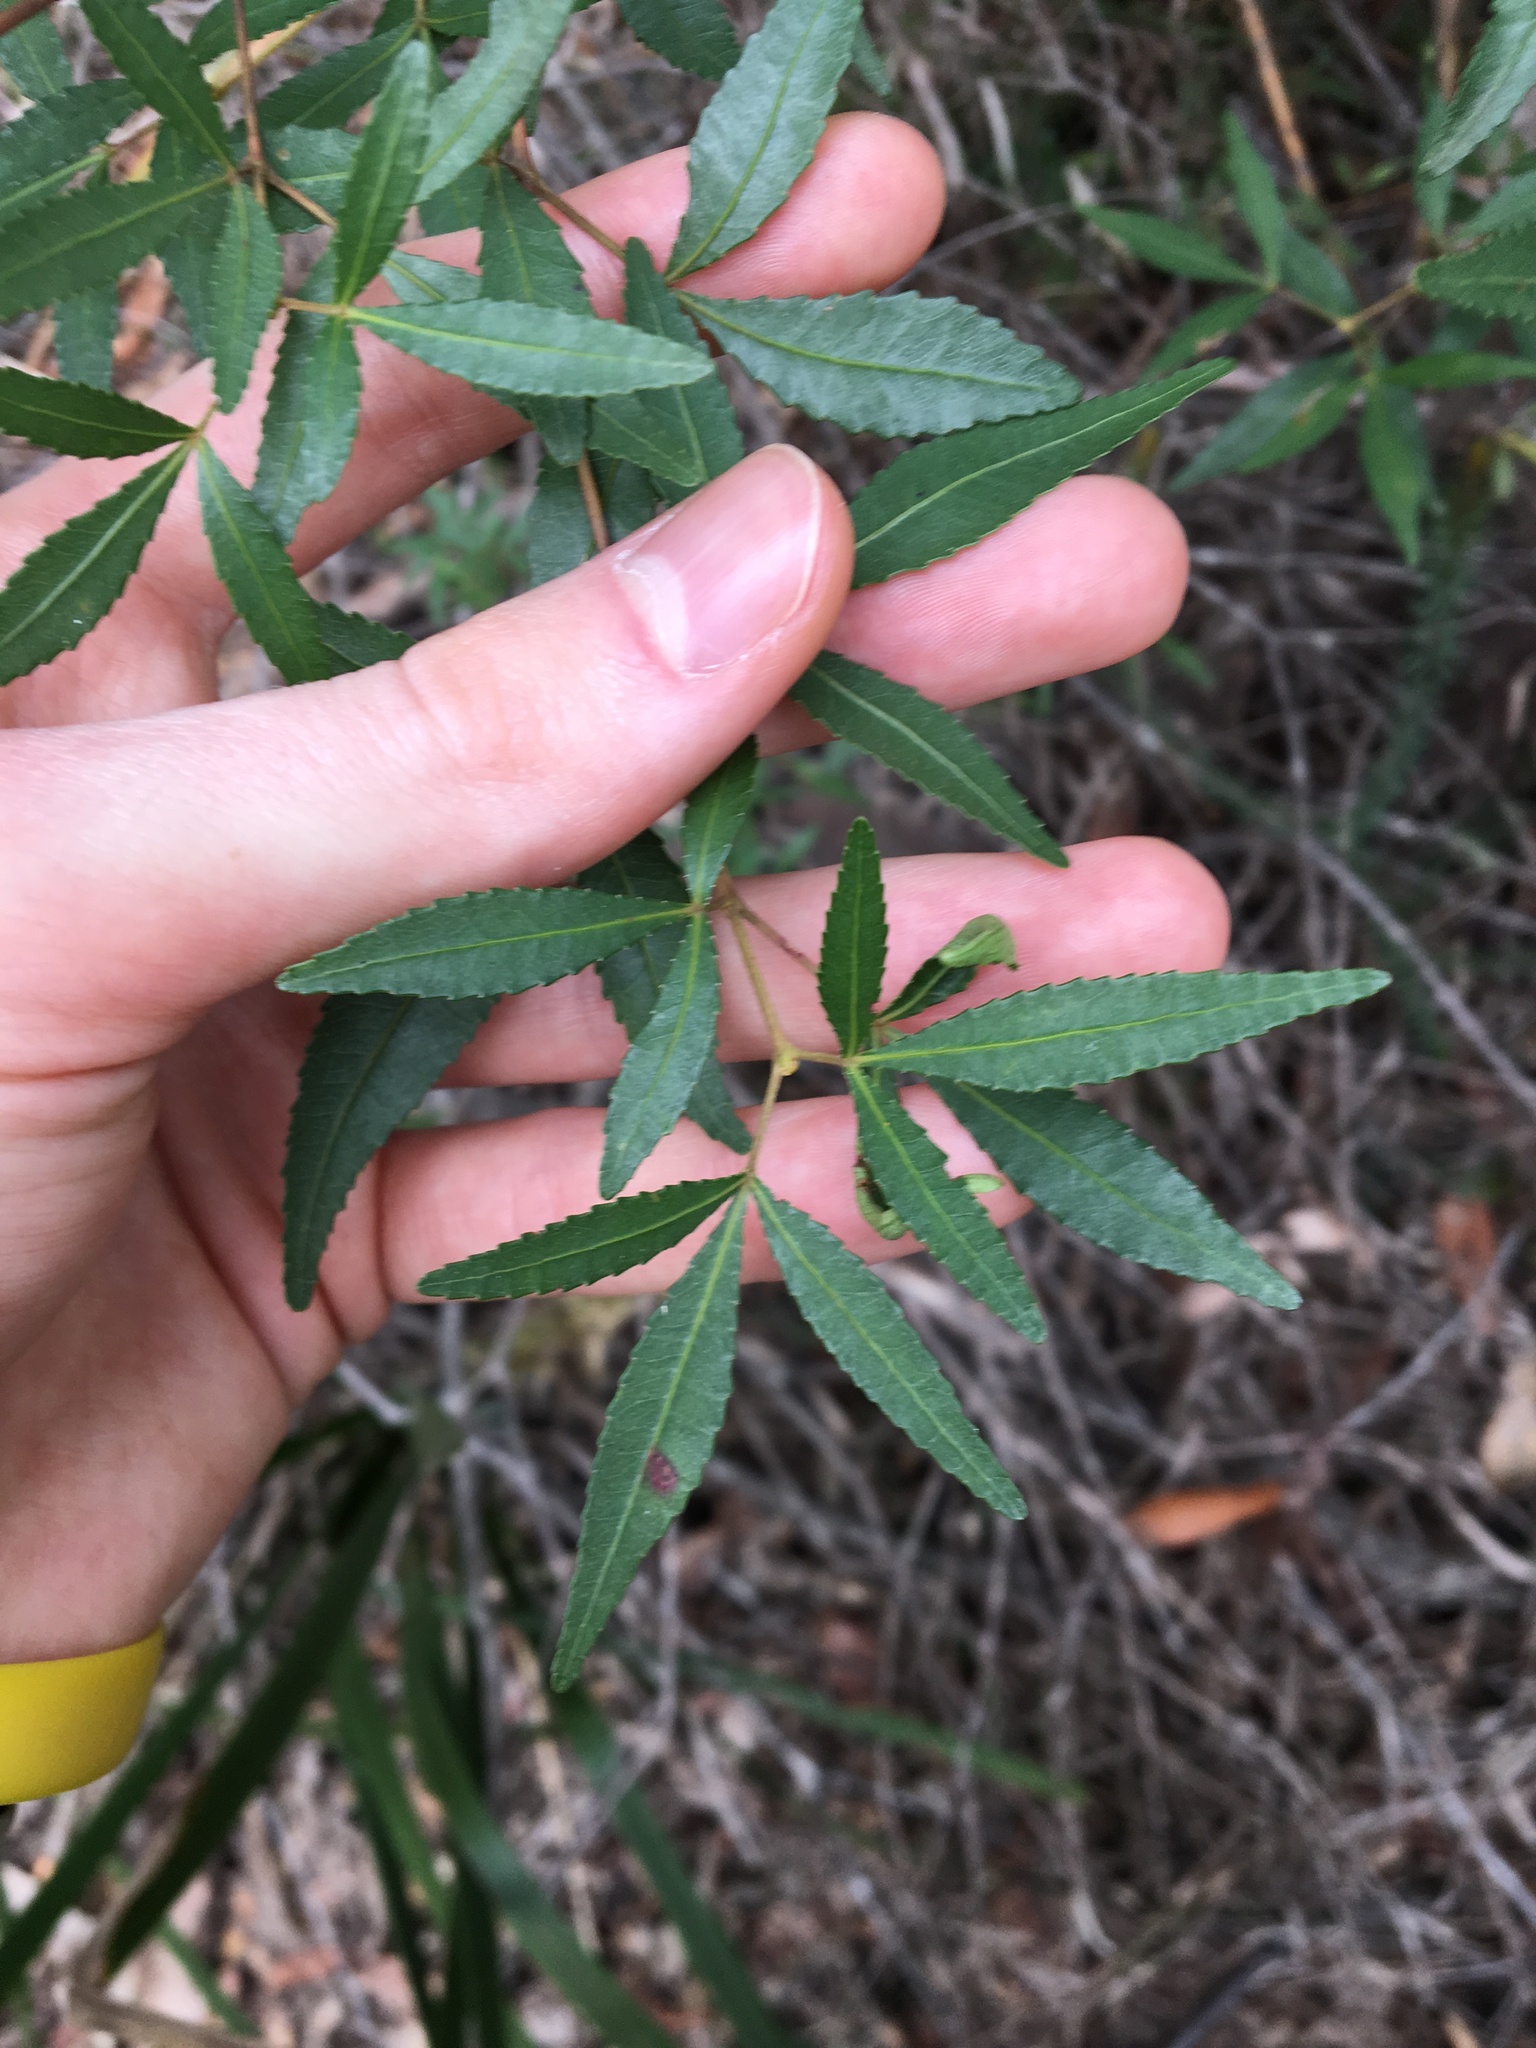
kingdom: Plantae
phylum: Tracheophyta
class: Magnoliopsida
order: Oxalidales
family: Cunoniaceae
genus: Ceratopetalum
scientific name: Ceratopetalum gummiferum
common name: Christmasbush
